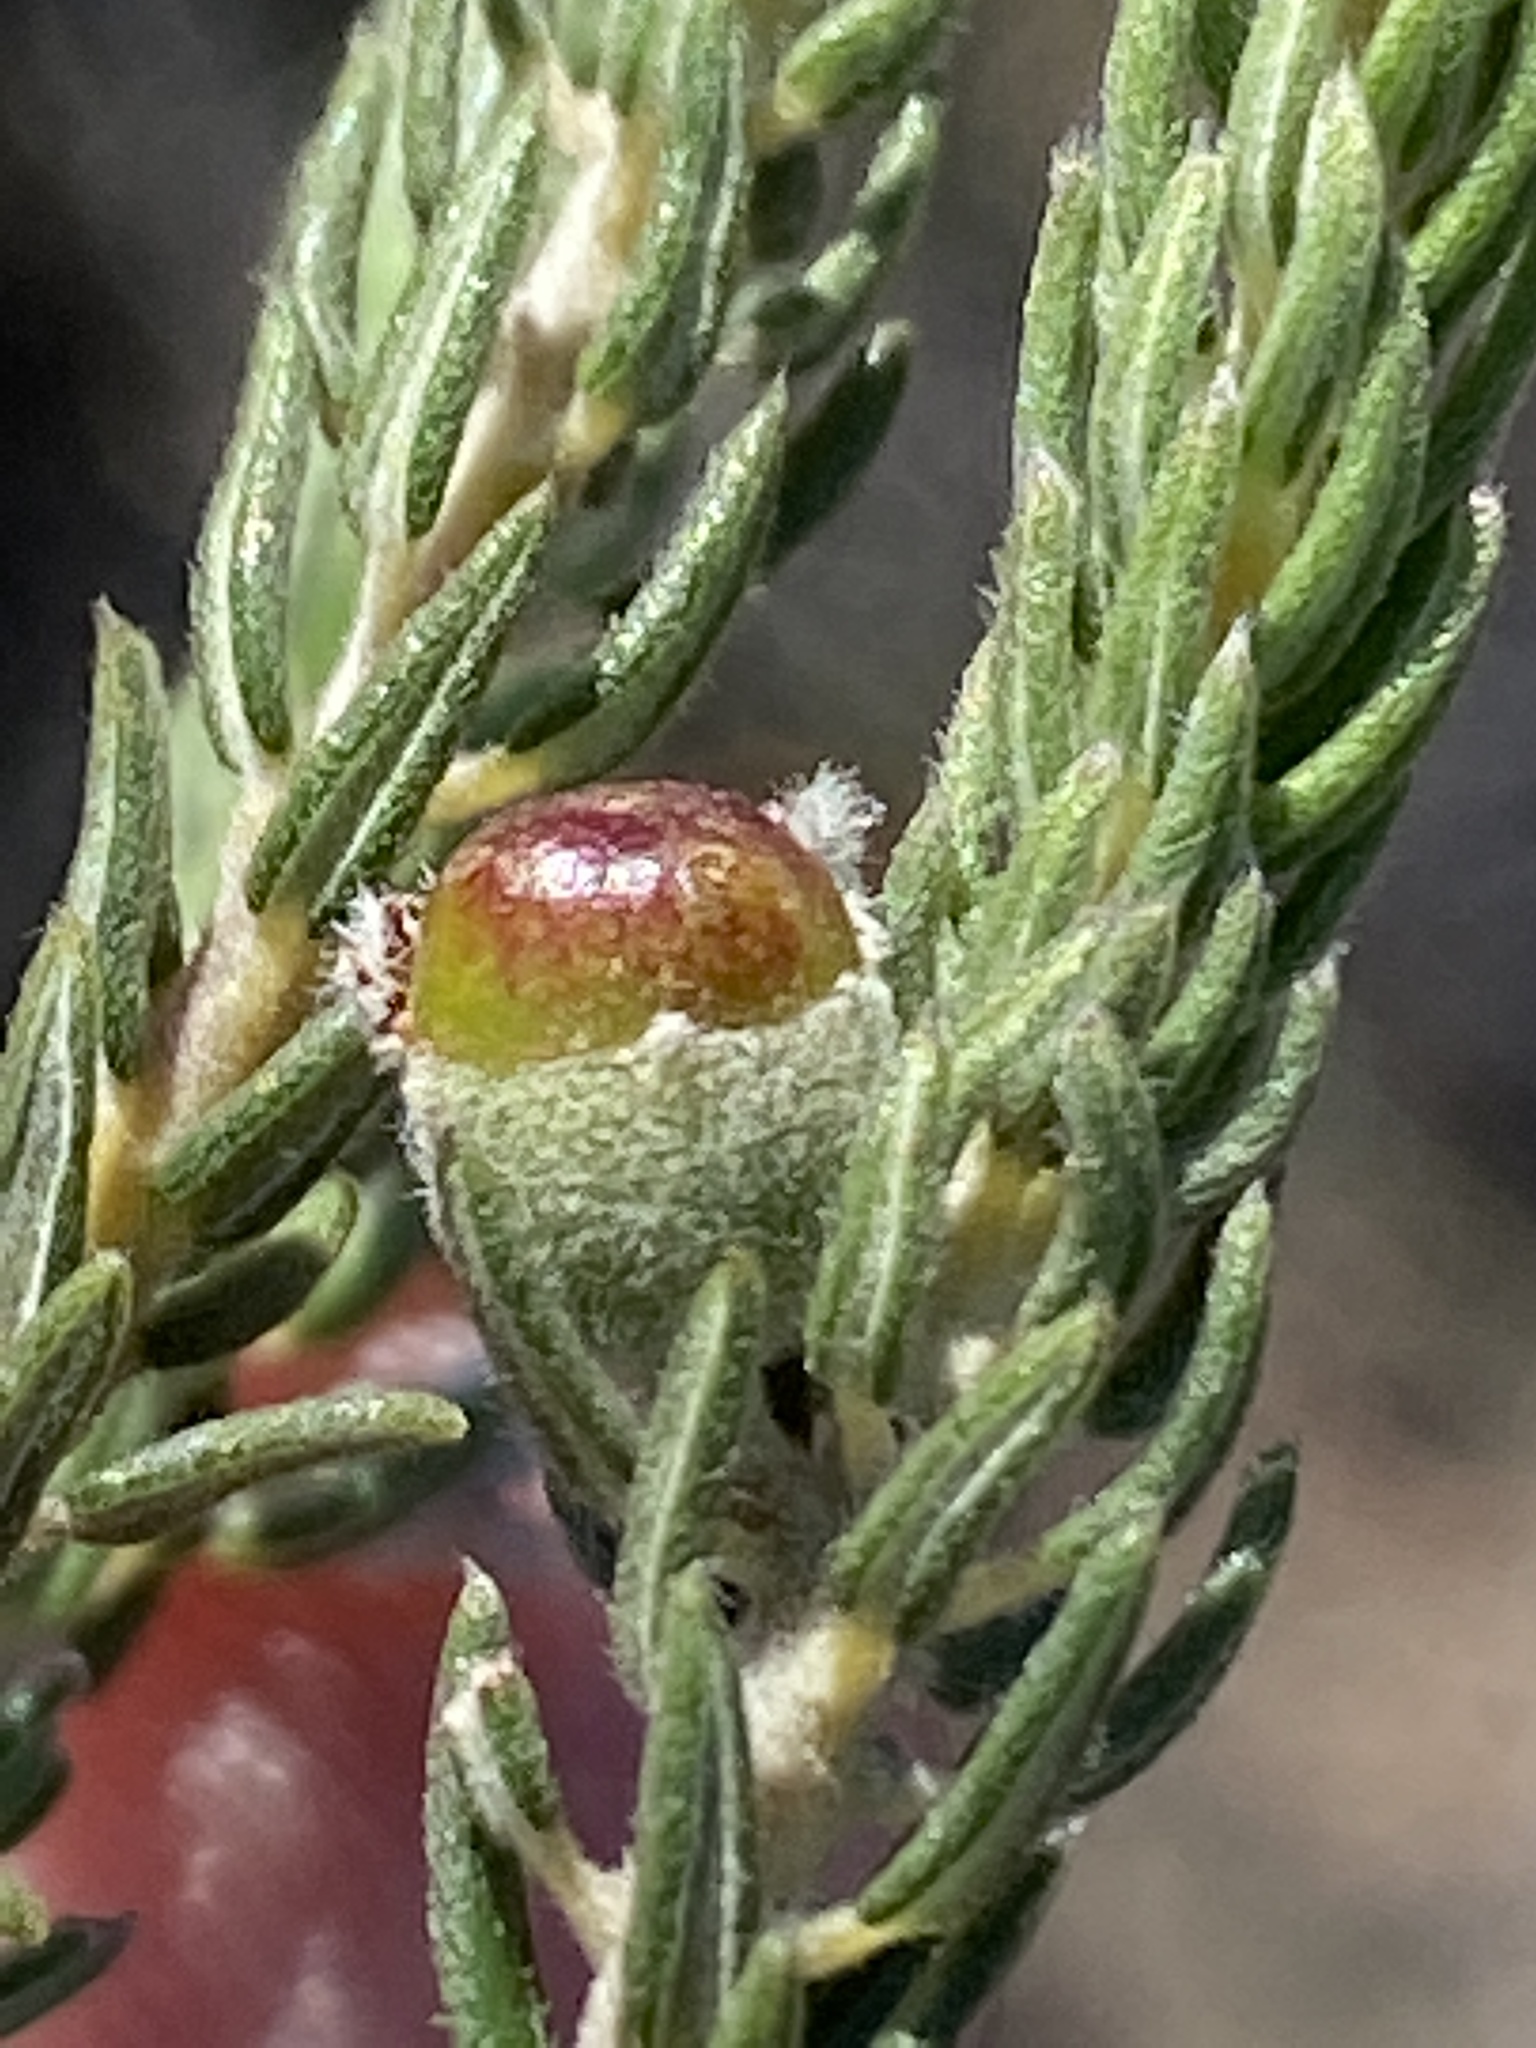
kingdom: Plantae
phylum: Tracheophyta
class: Magnoliopsida
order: Rosales
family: Rhamnaceae
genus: Phylica
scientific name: Phylica purpurea
